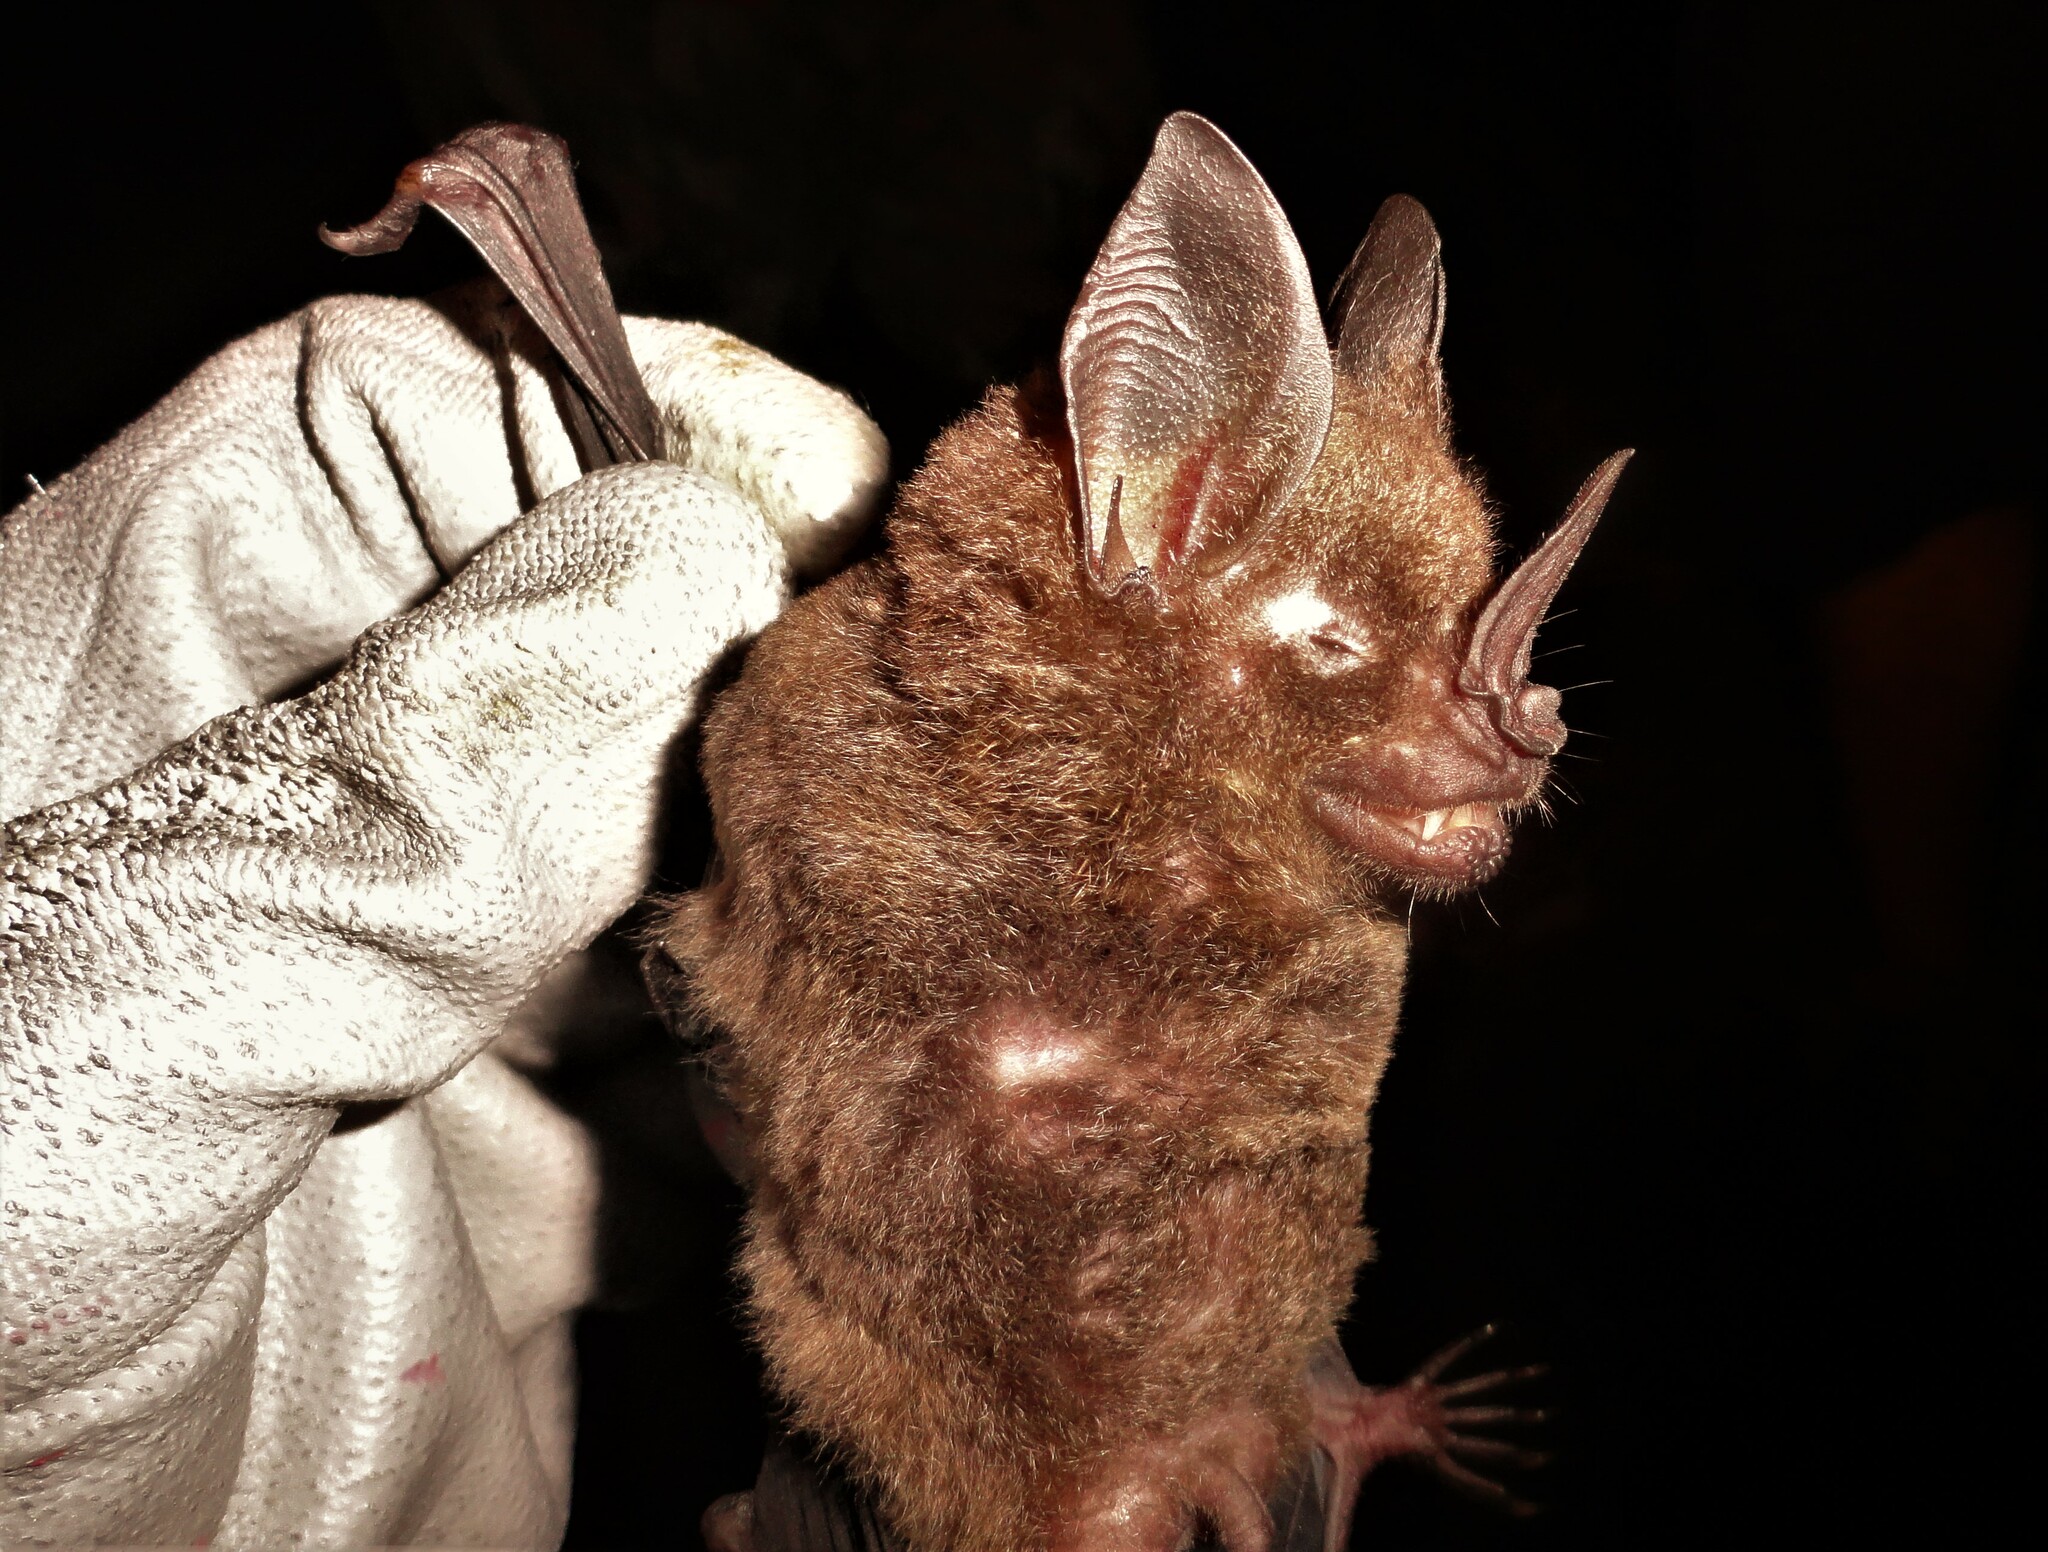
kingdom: Animalia
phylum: Chordata
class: Mammalia
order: Chiroptera
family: Phyllostomidae
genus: Phyllostomus
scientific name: Phyllostomus elongatus
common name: Lesser spear-nosed bat
